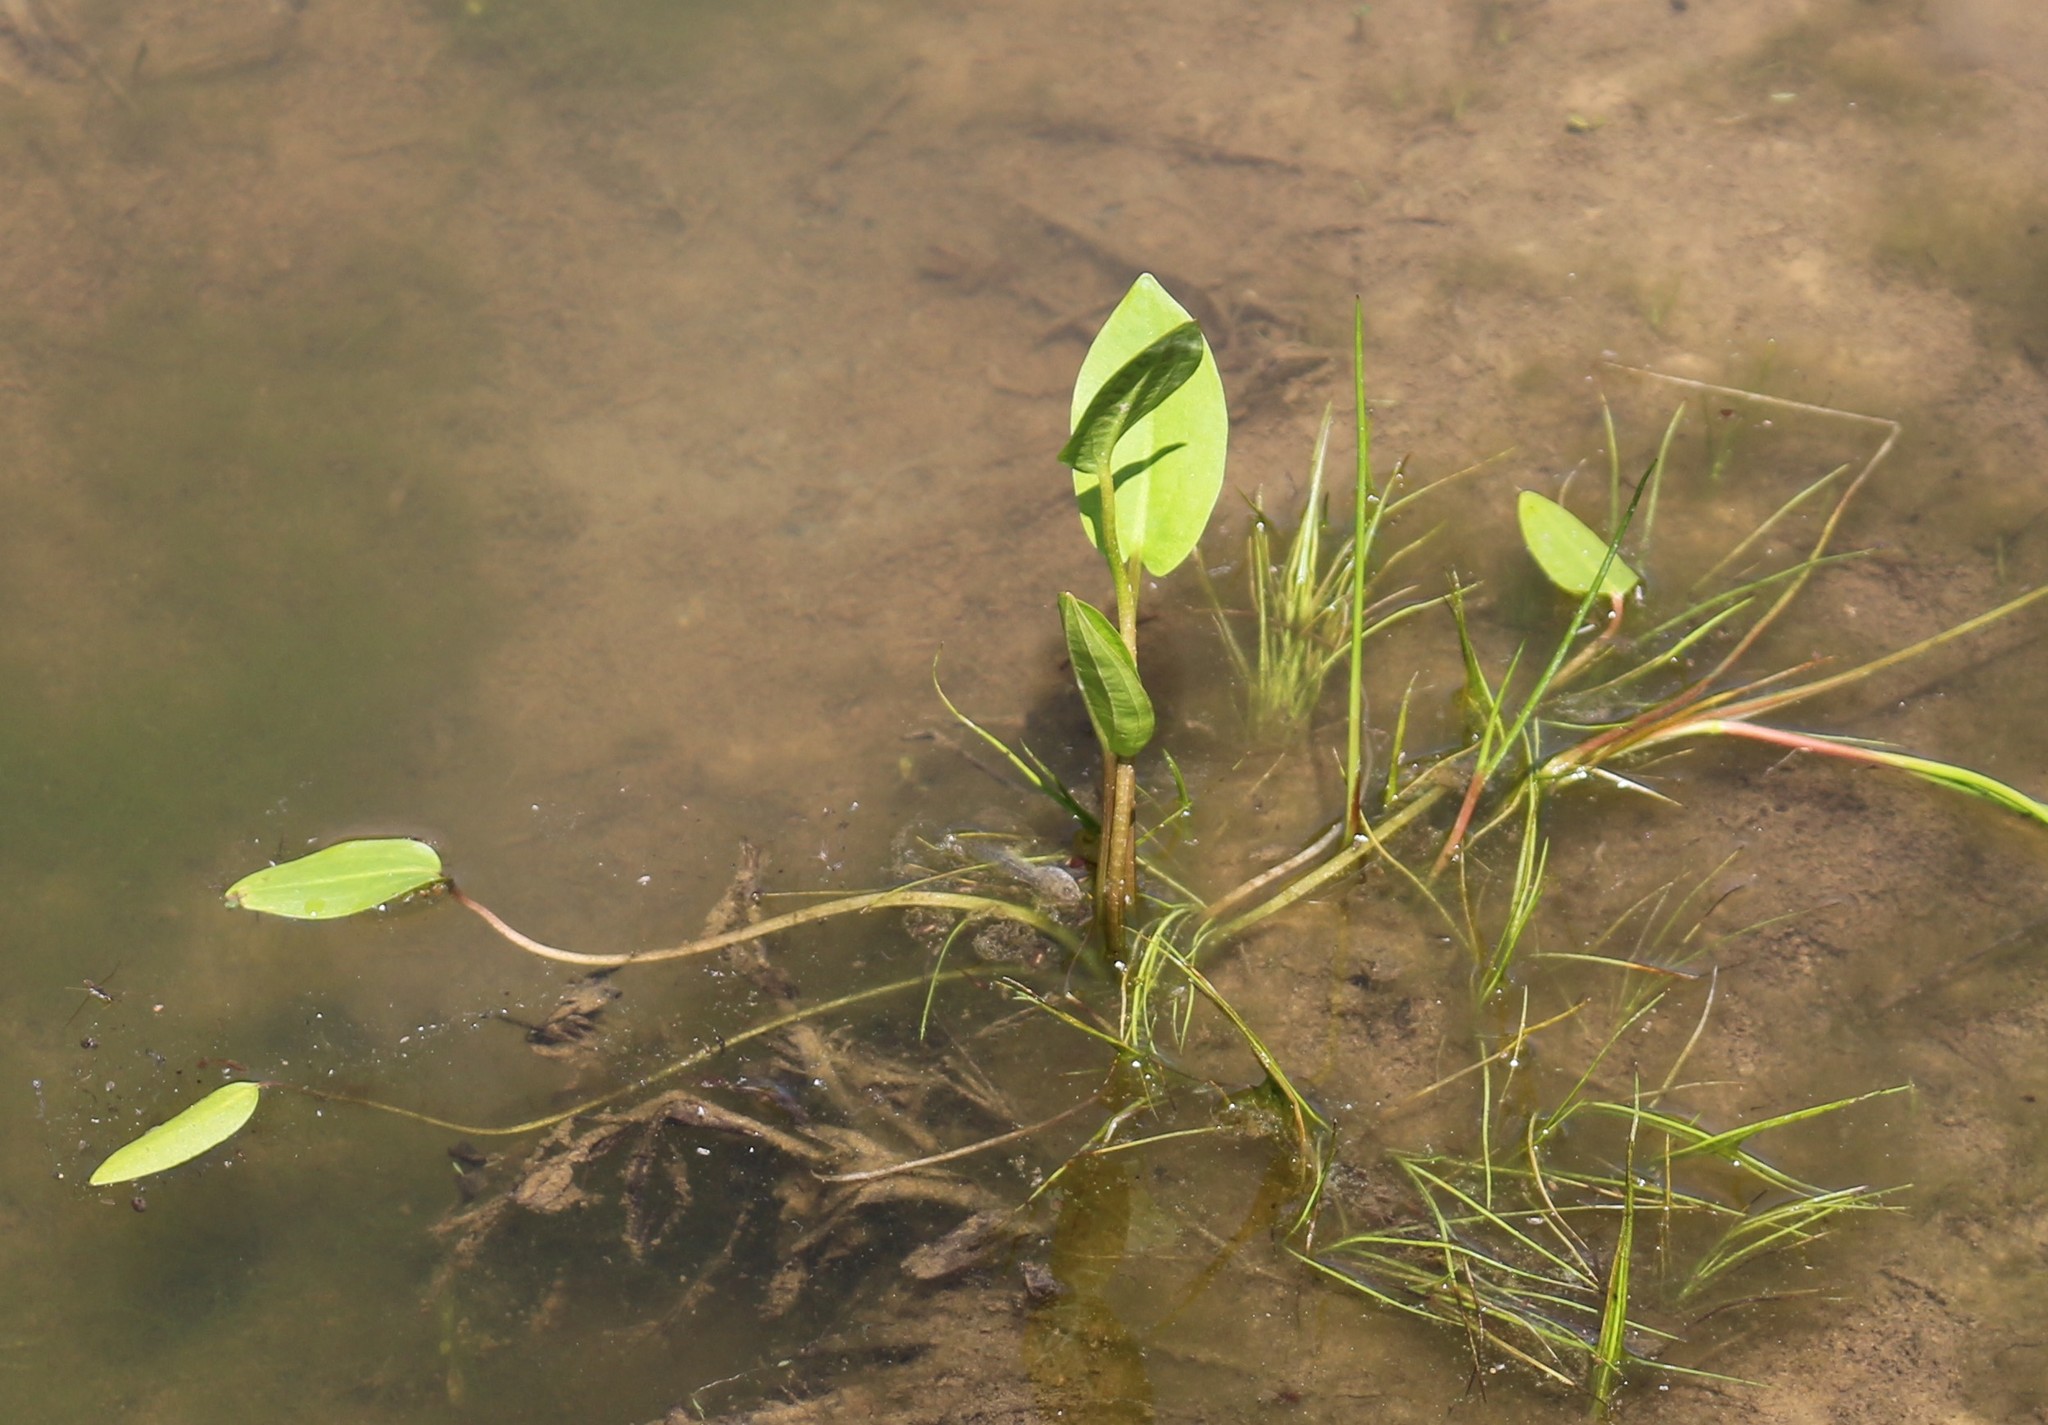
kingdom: Plantae
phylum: Tracheophyta
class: Liliopsida
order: Alismatales
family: Alismataceae
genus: Alisma
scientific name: Alisma plantago-aquatica
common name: Water-plantain
